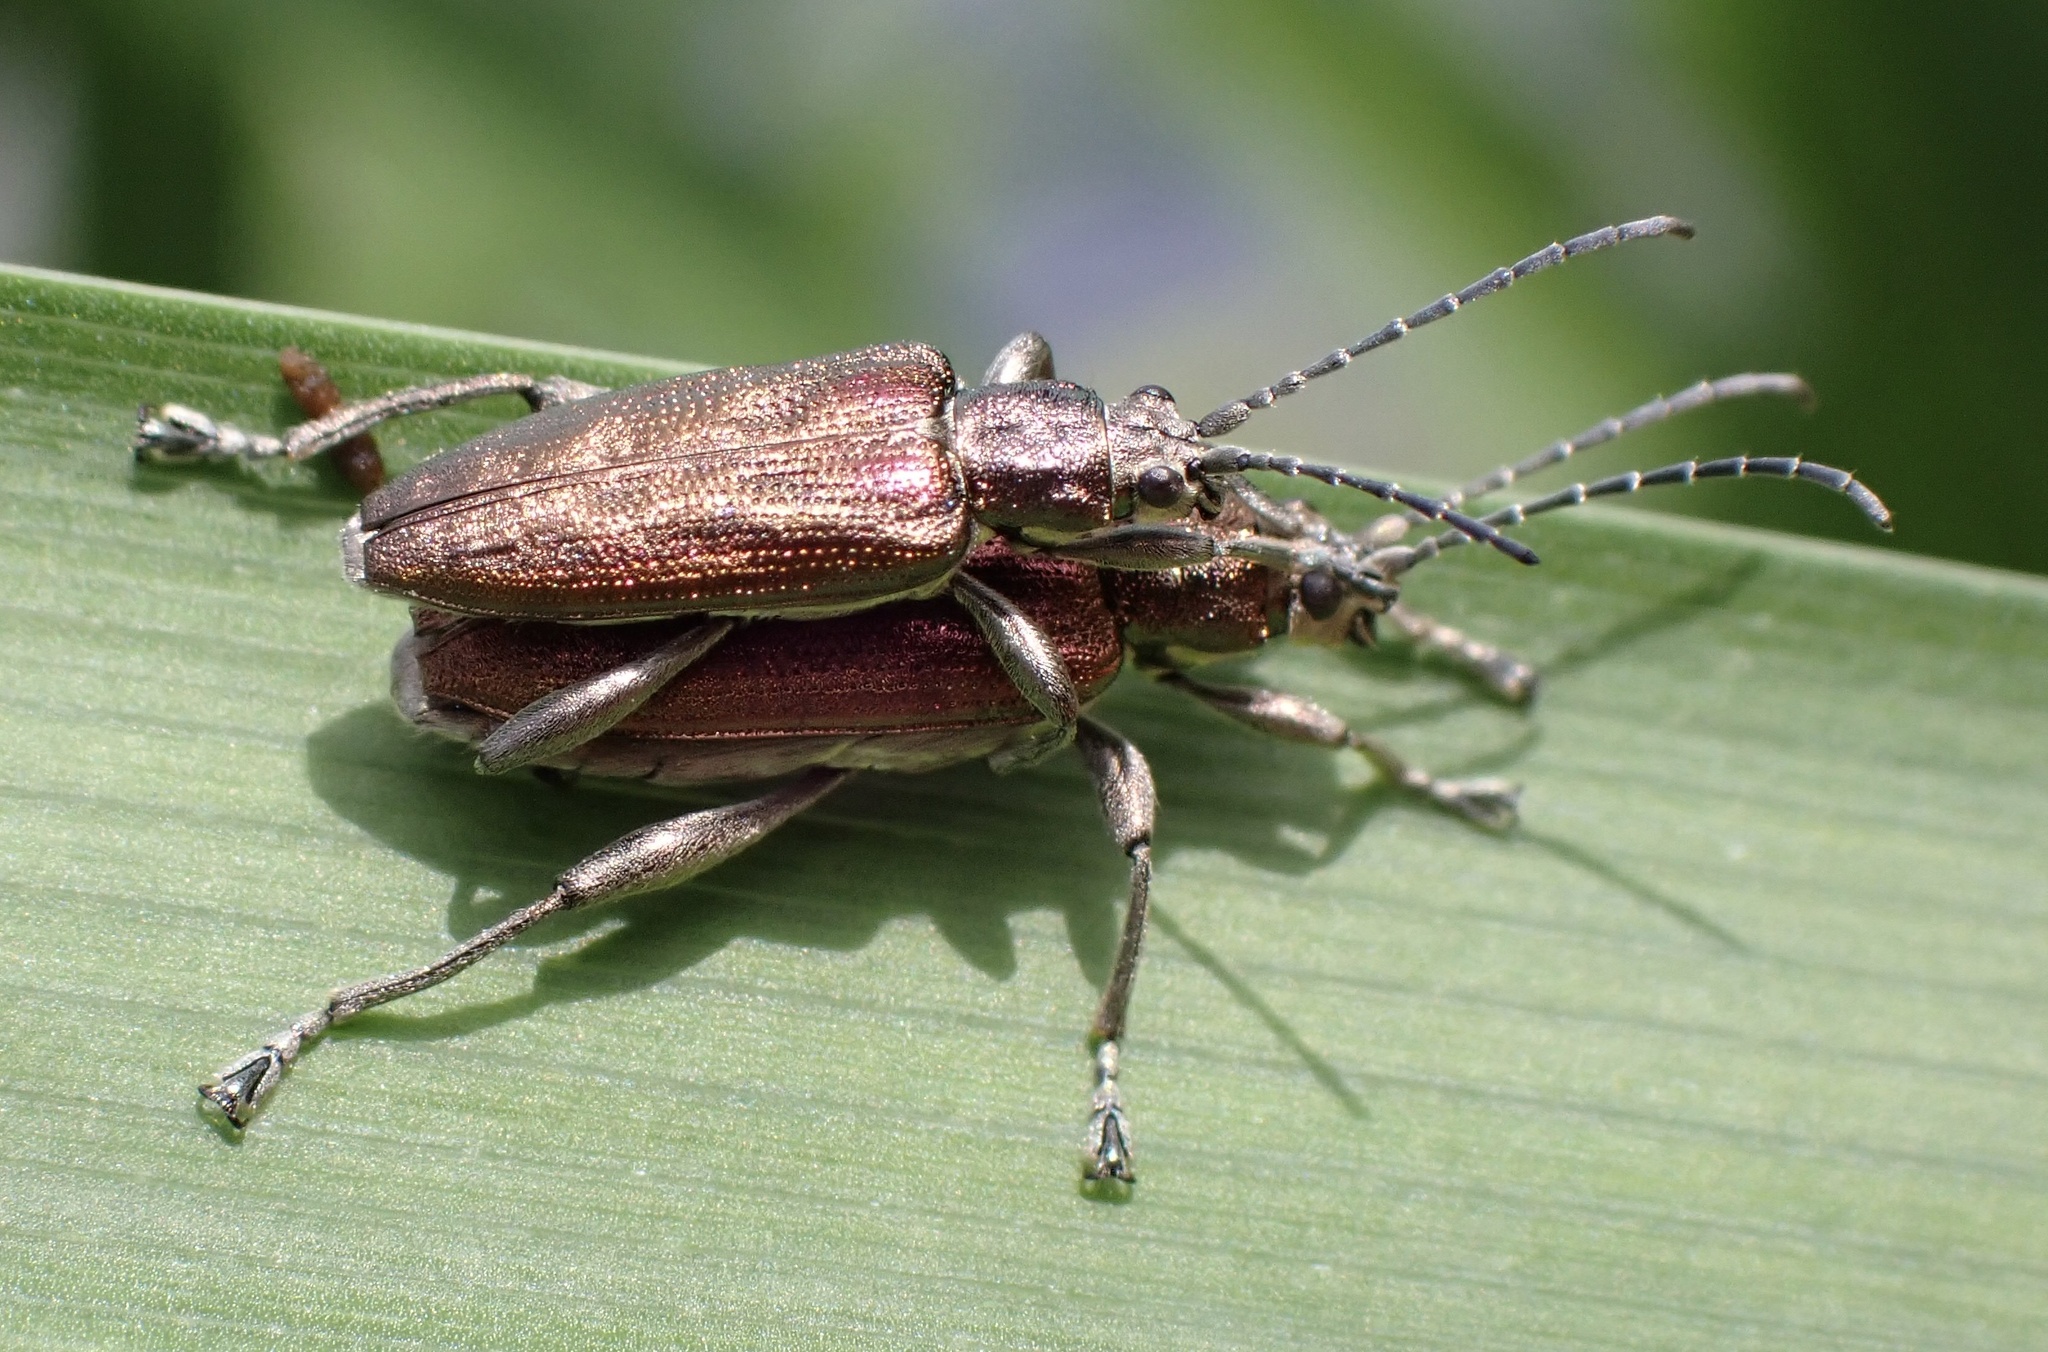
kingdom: Animalia
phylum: Arthropoda
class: Insecta
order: Coleoptera
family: Chrysomelidae
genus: Donacia
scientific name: Donacia marginata
